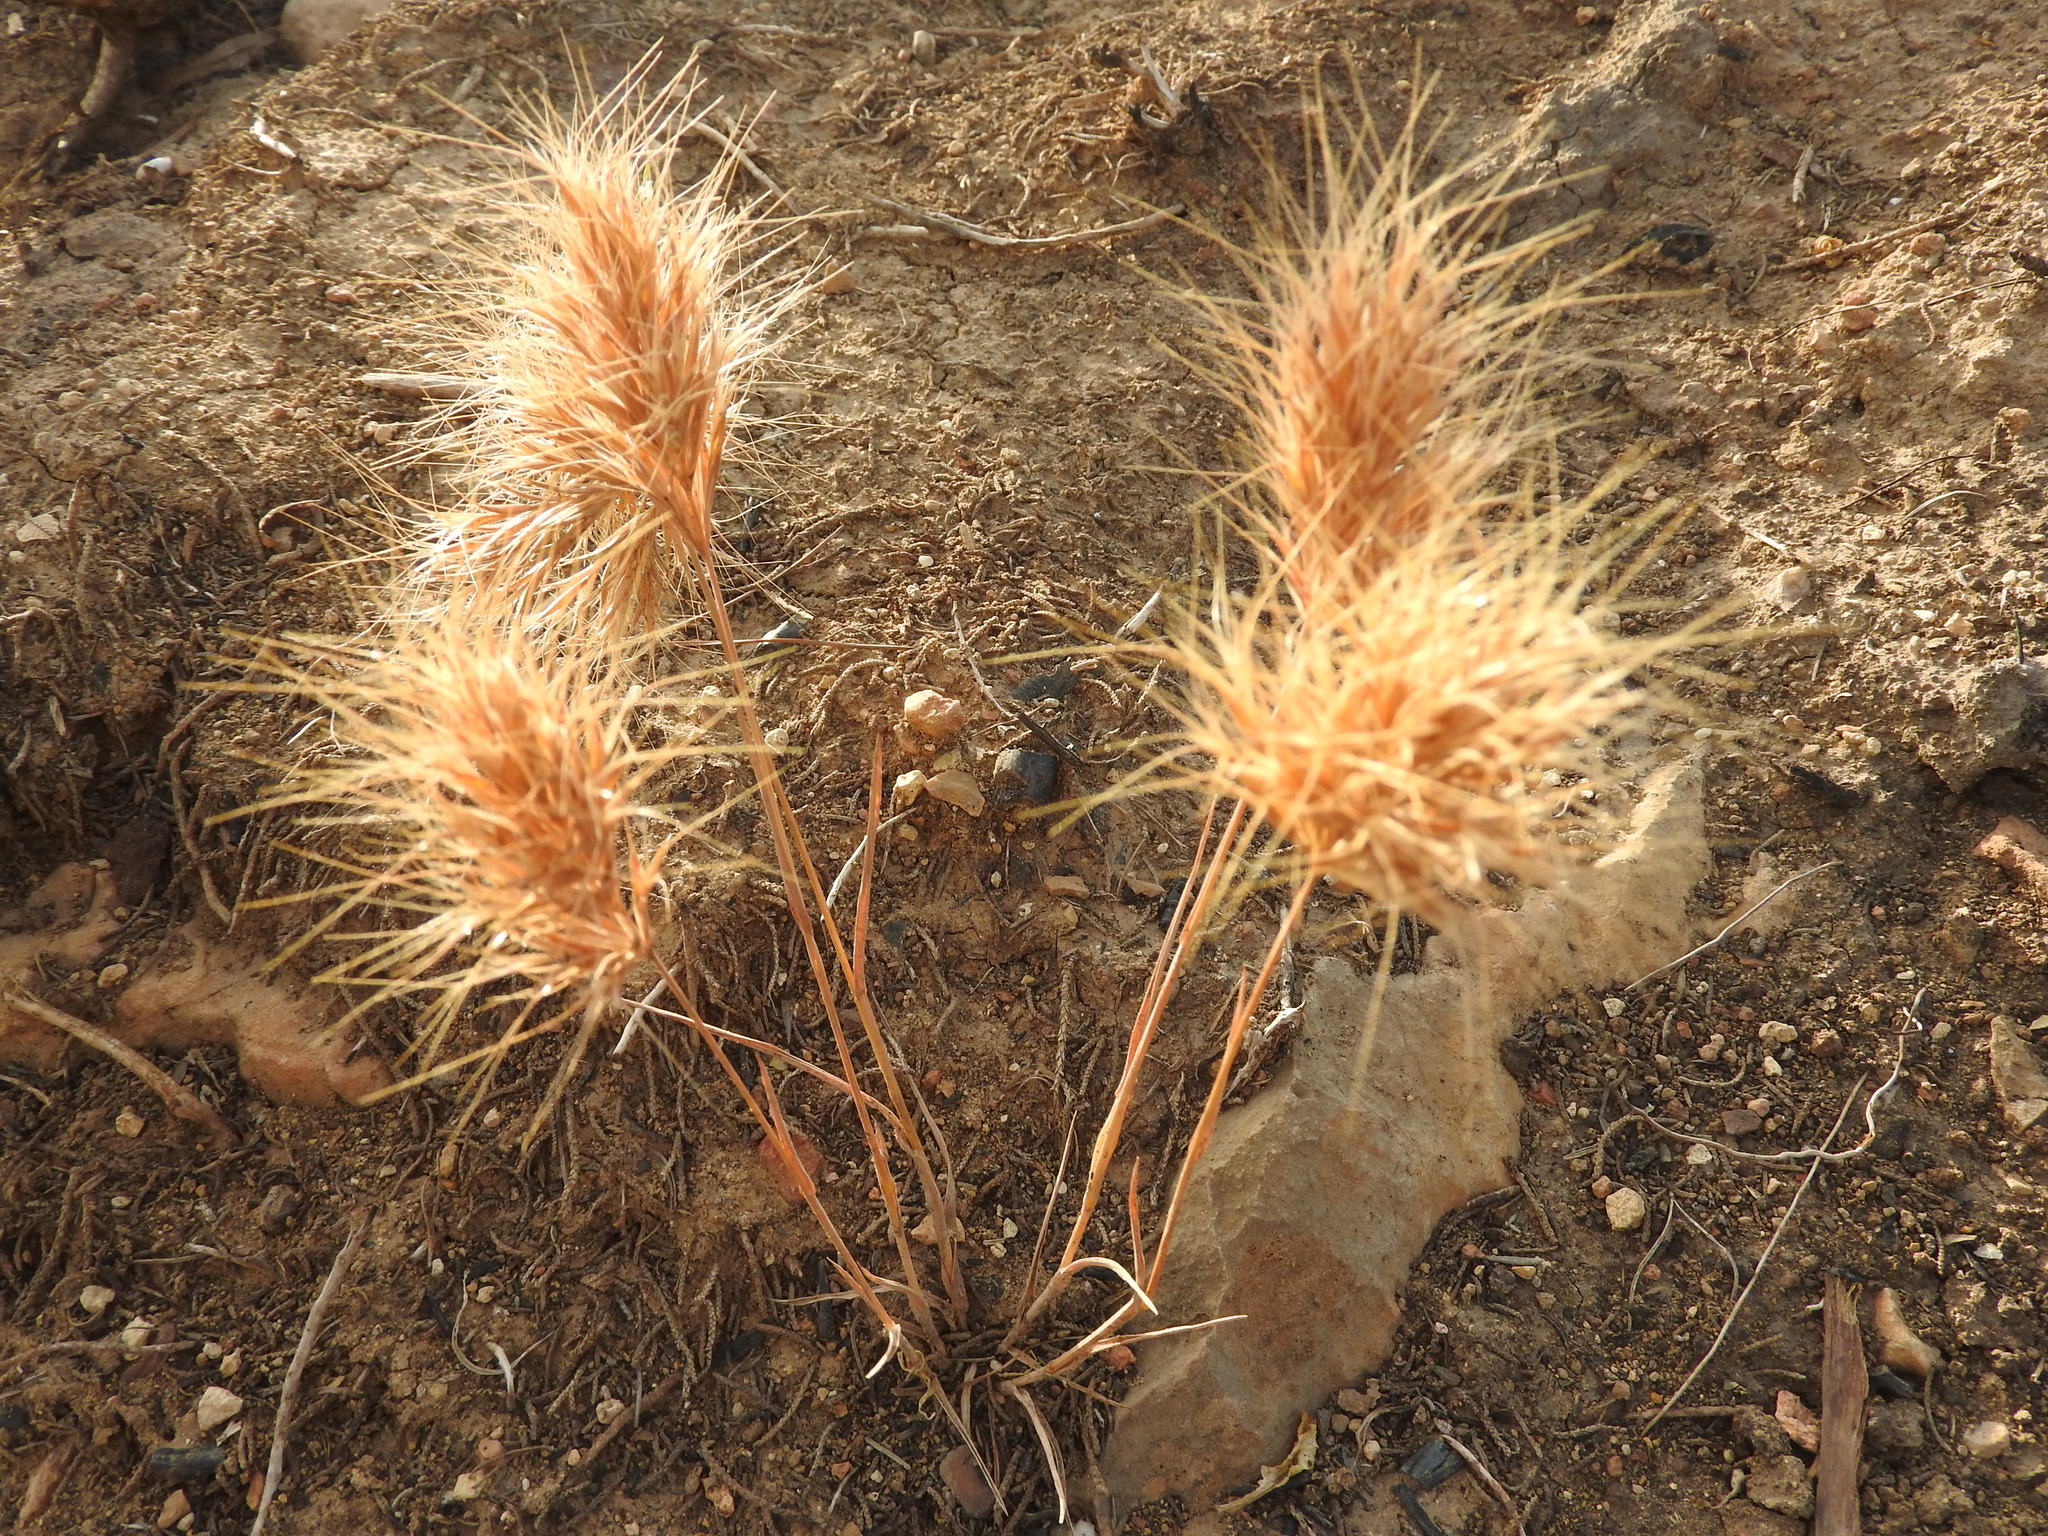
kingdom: Plantae
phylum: Tracheophyta
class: Liliopsida
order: Poales
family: Poaceae
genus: Bromus
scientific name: Bromus rubens
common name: Red brome
